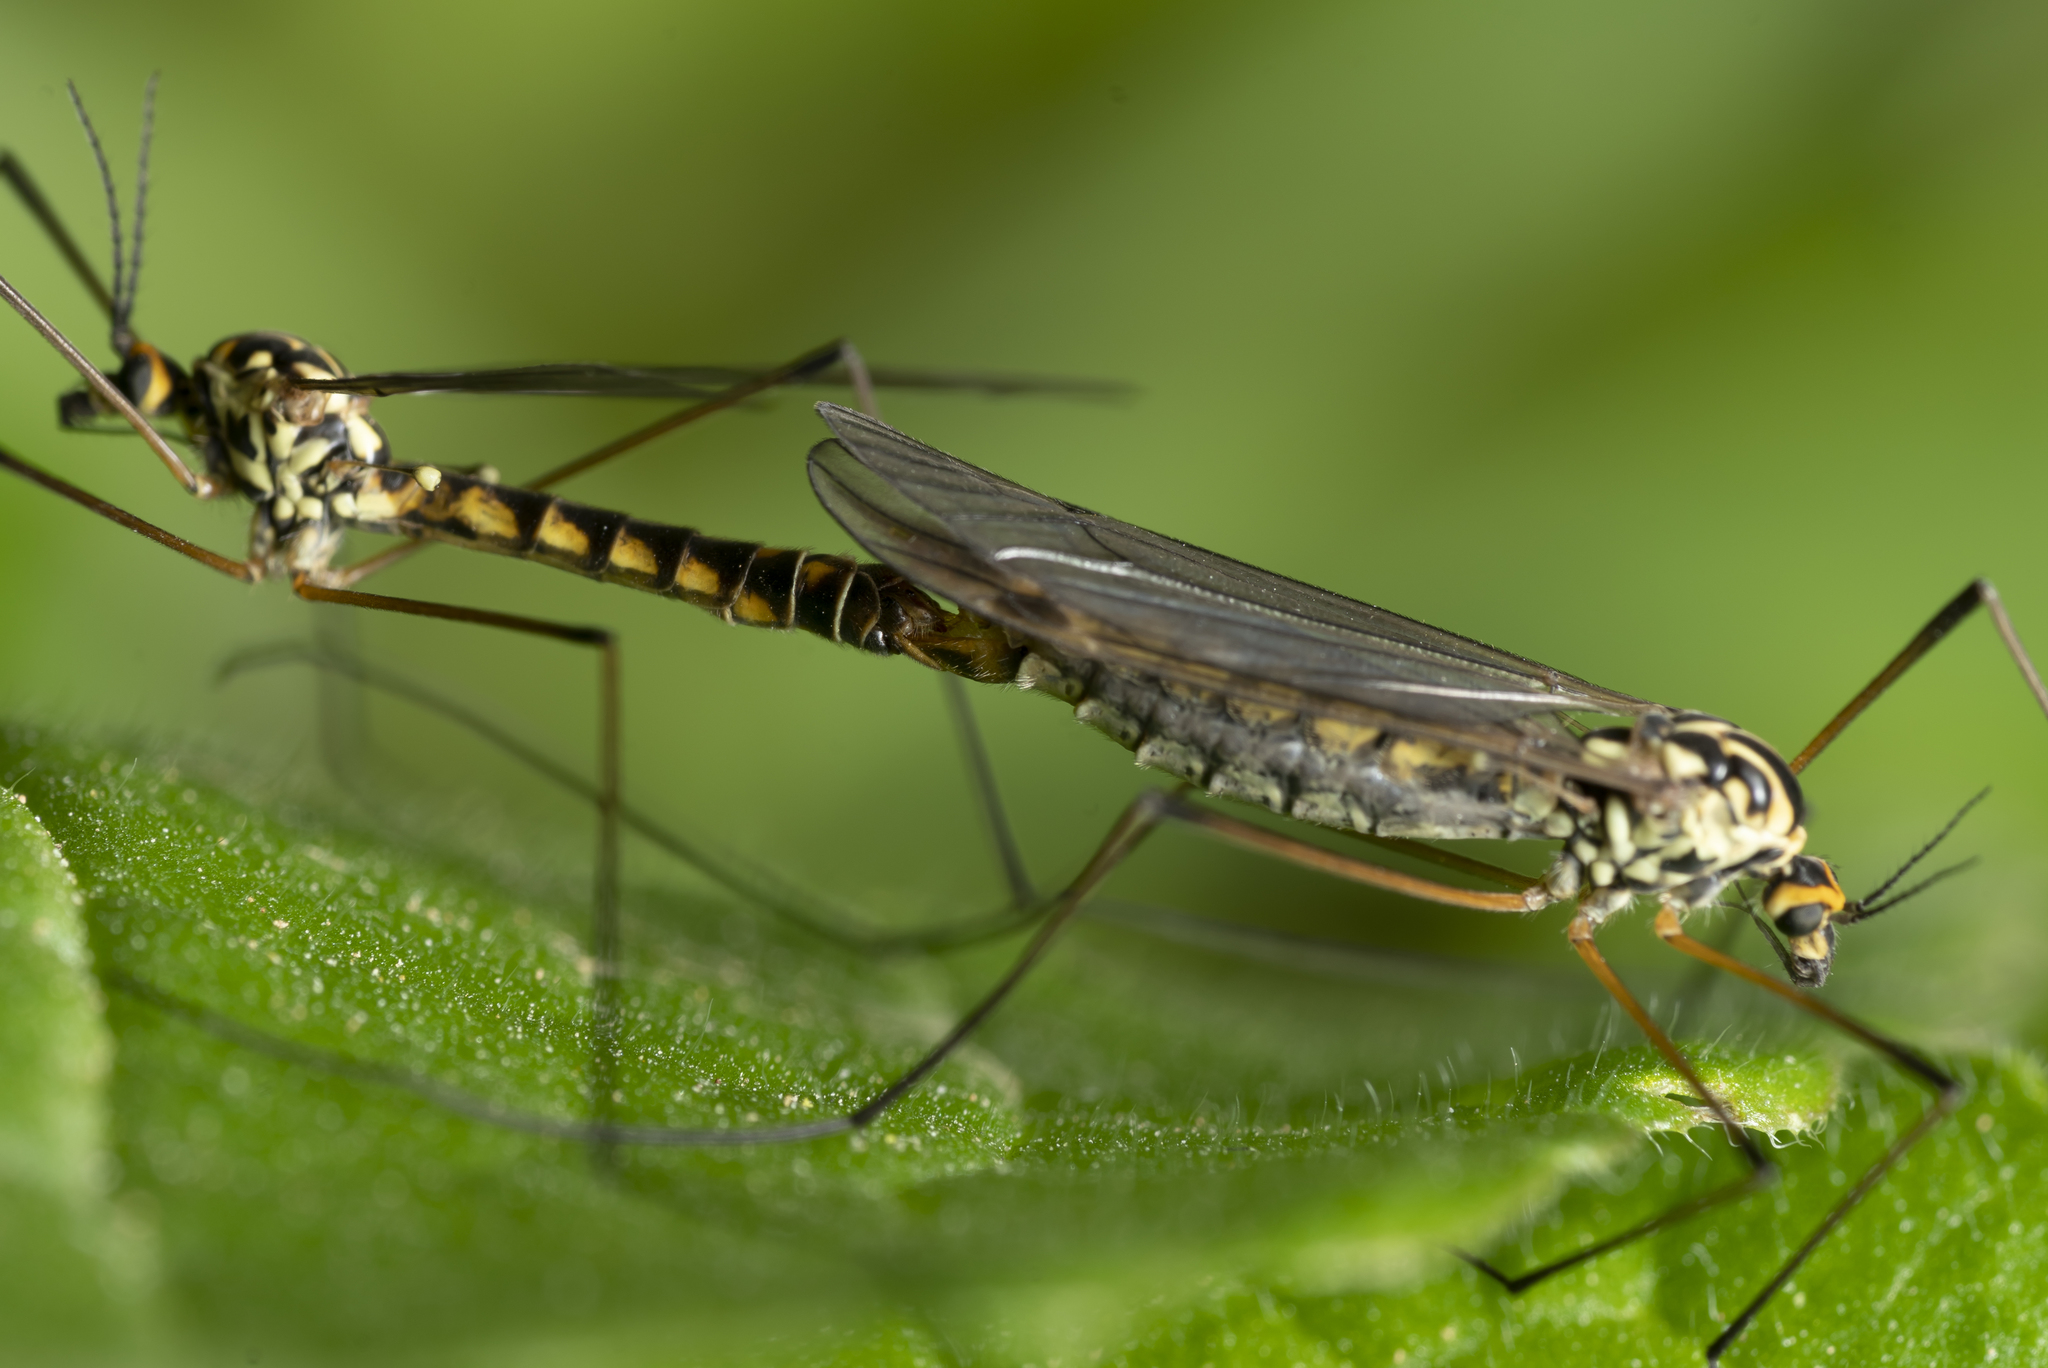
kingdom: Animalia
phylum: Arthropoda
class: Insecta
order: Diptera
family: Tipulidae
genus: Nephrotoma
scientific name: Nephrotoma theowaldi
